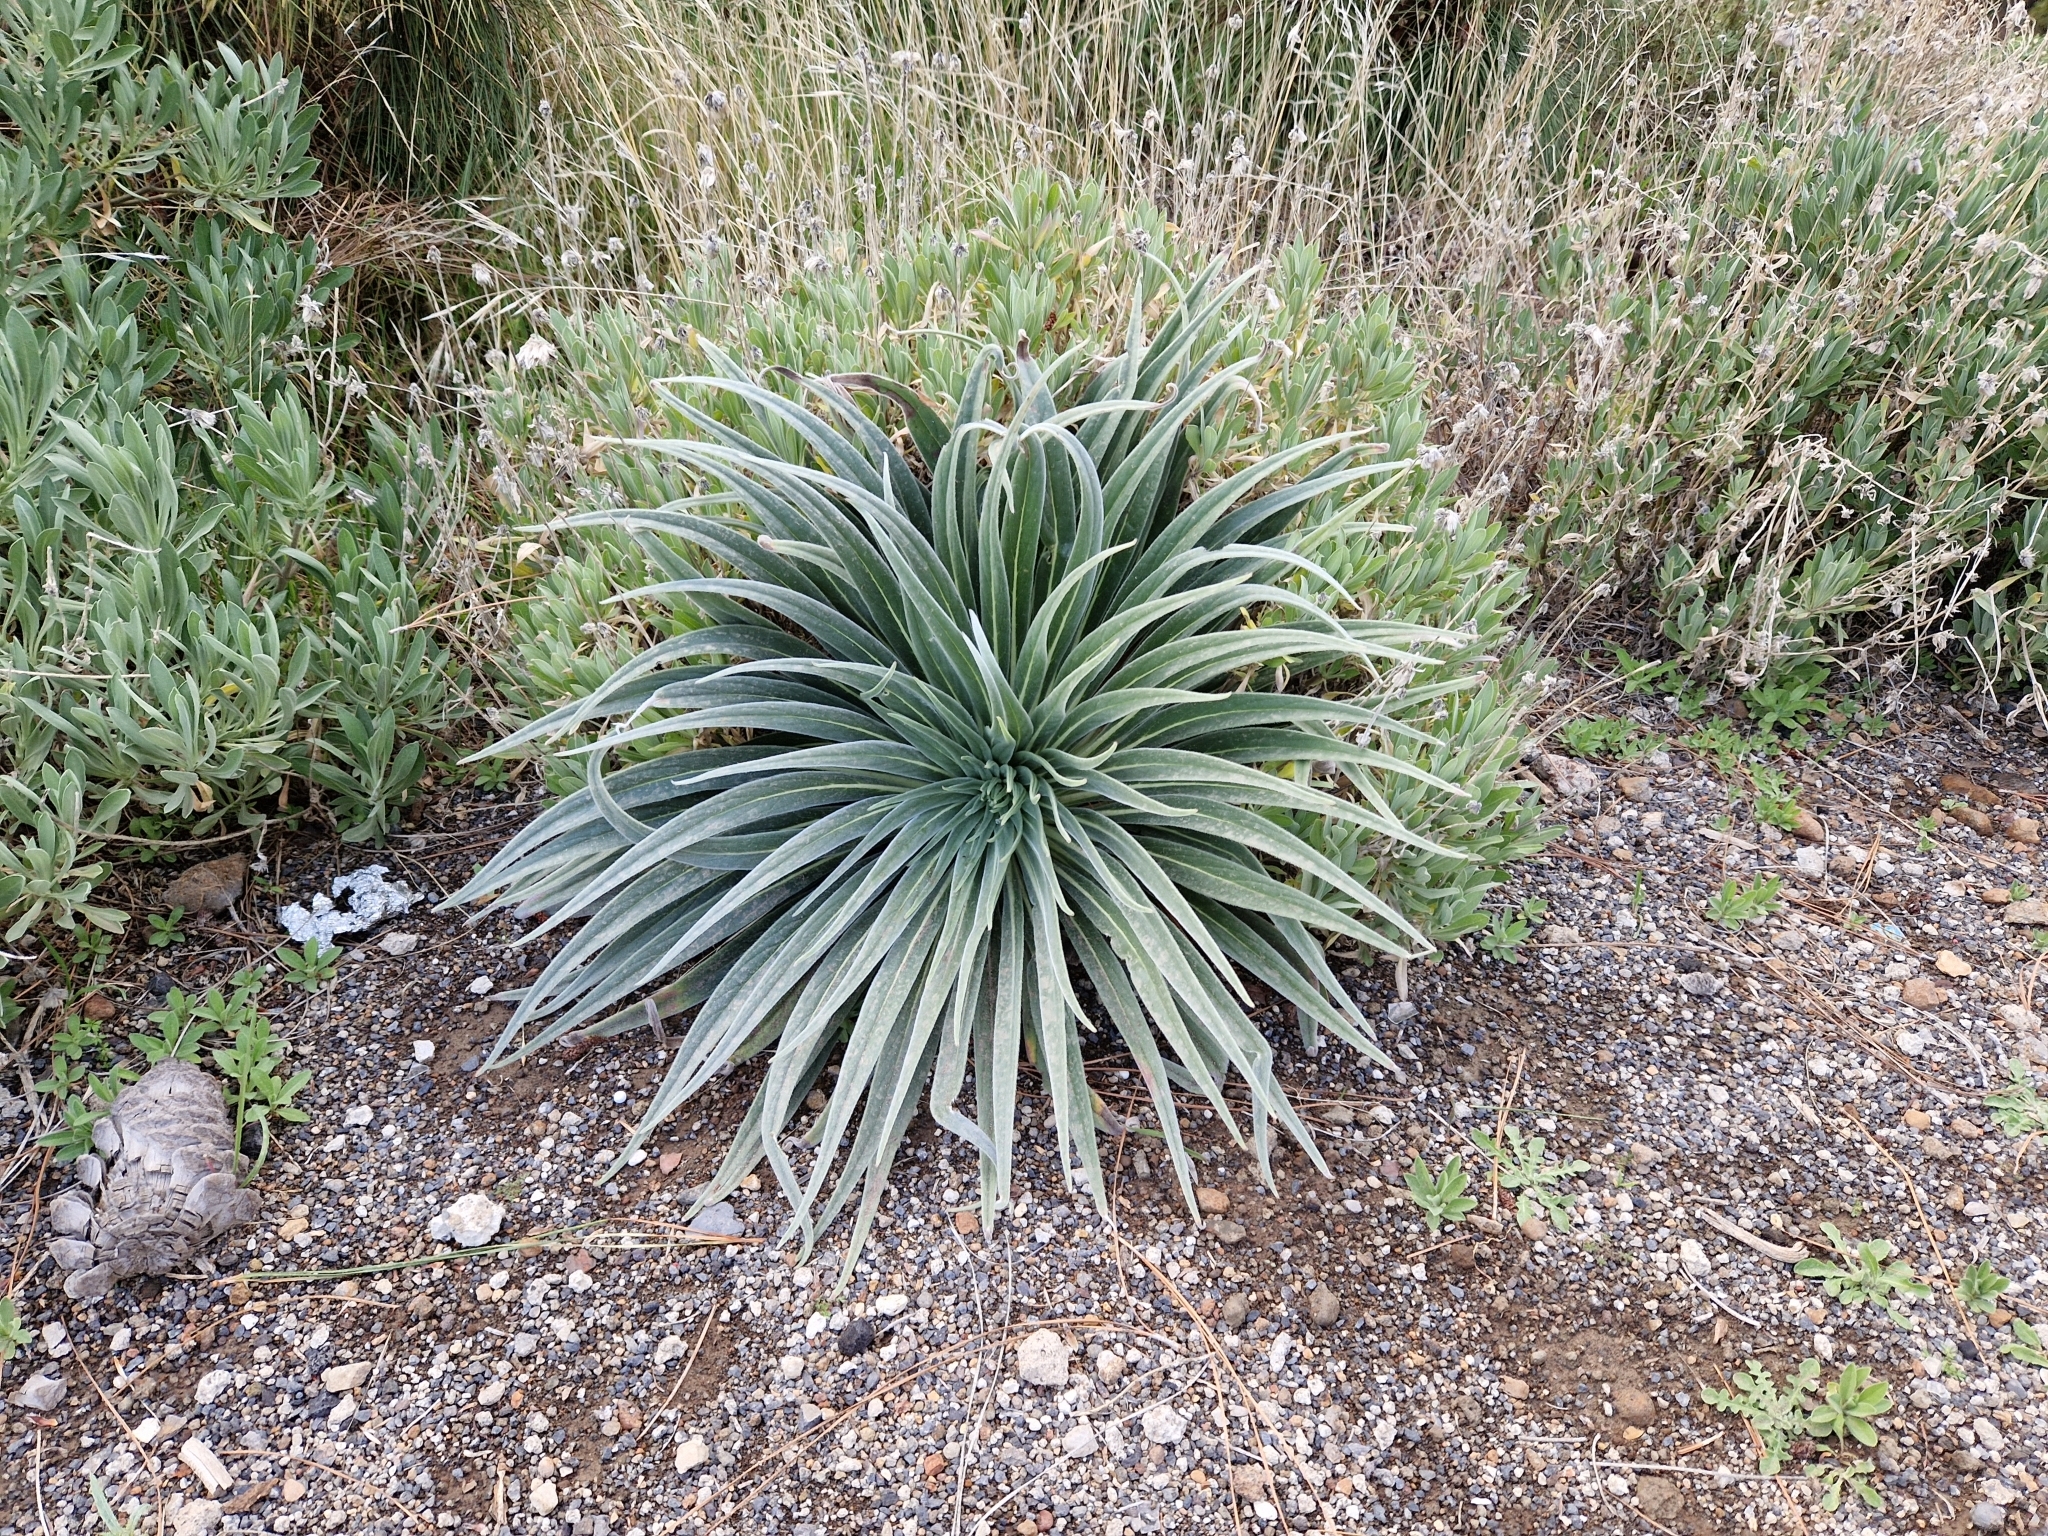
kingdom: Plantae
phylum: Tracheophyta
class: Magnoliopsida
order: Boraginales
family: Boraginaceae
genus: Echium
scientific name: Echium wildpretii
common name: Tower-of-jewels
